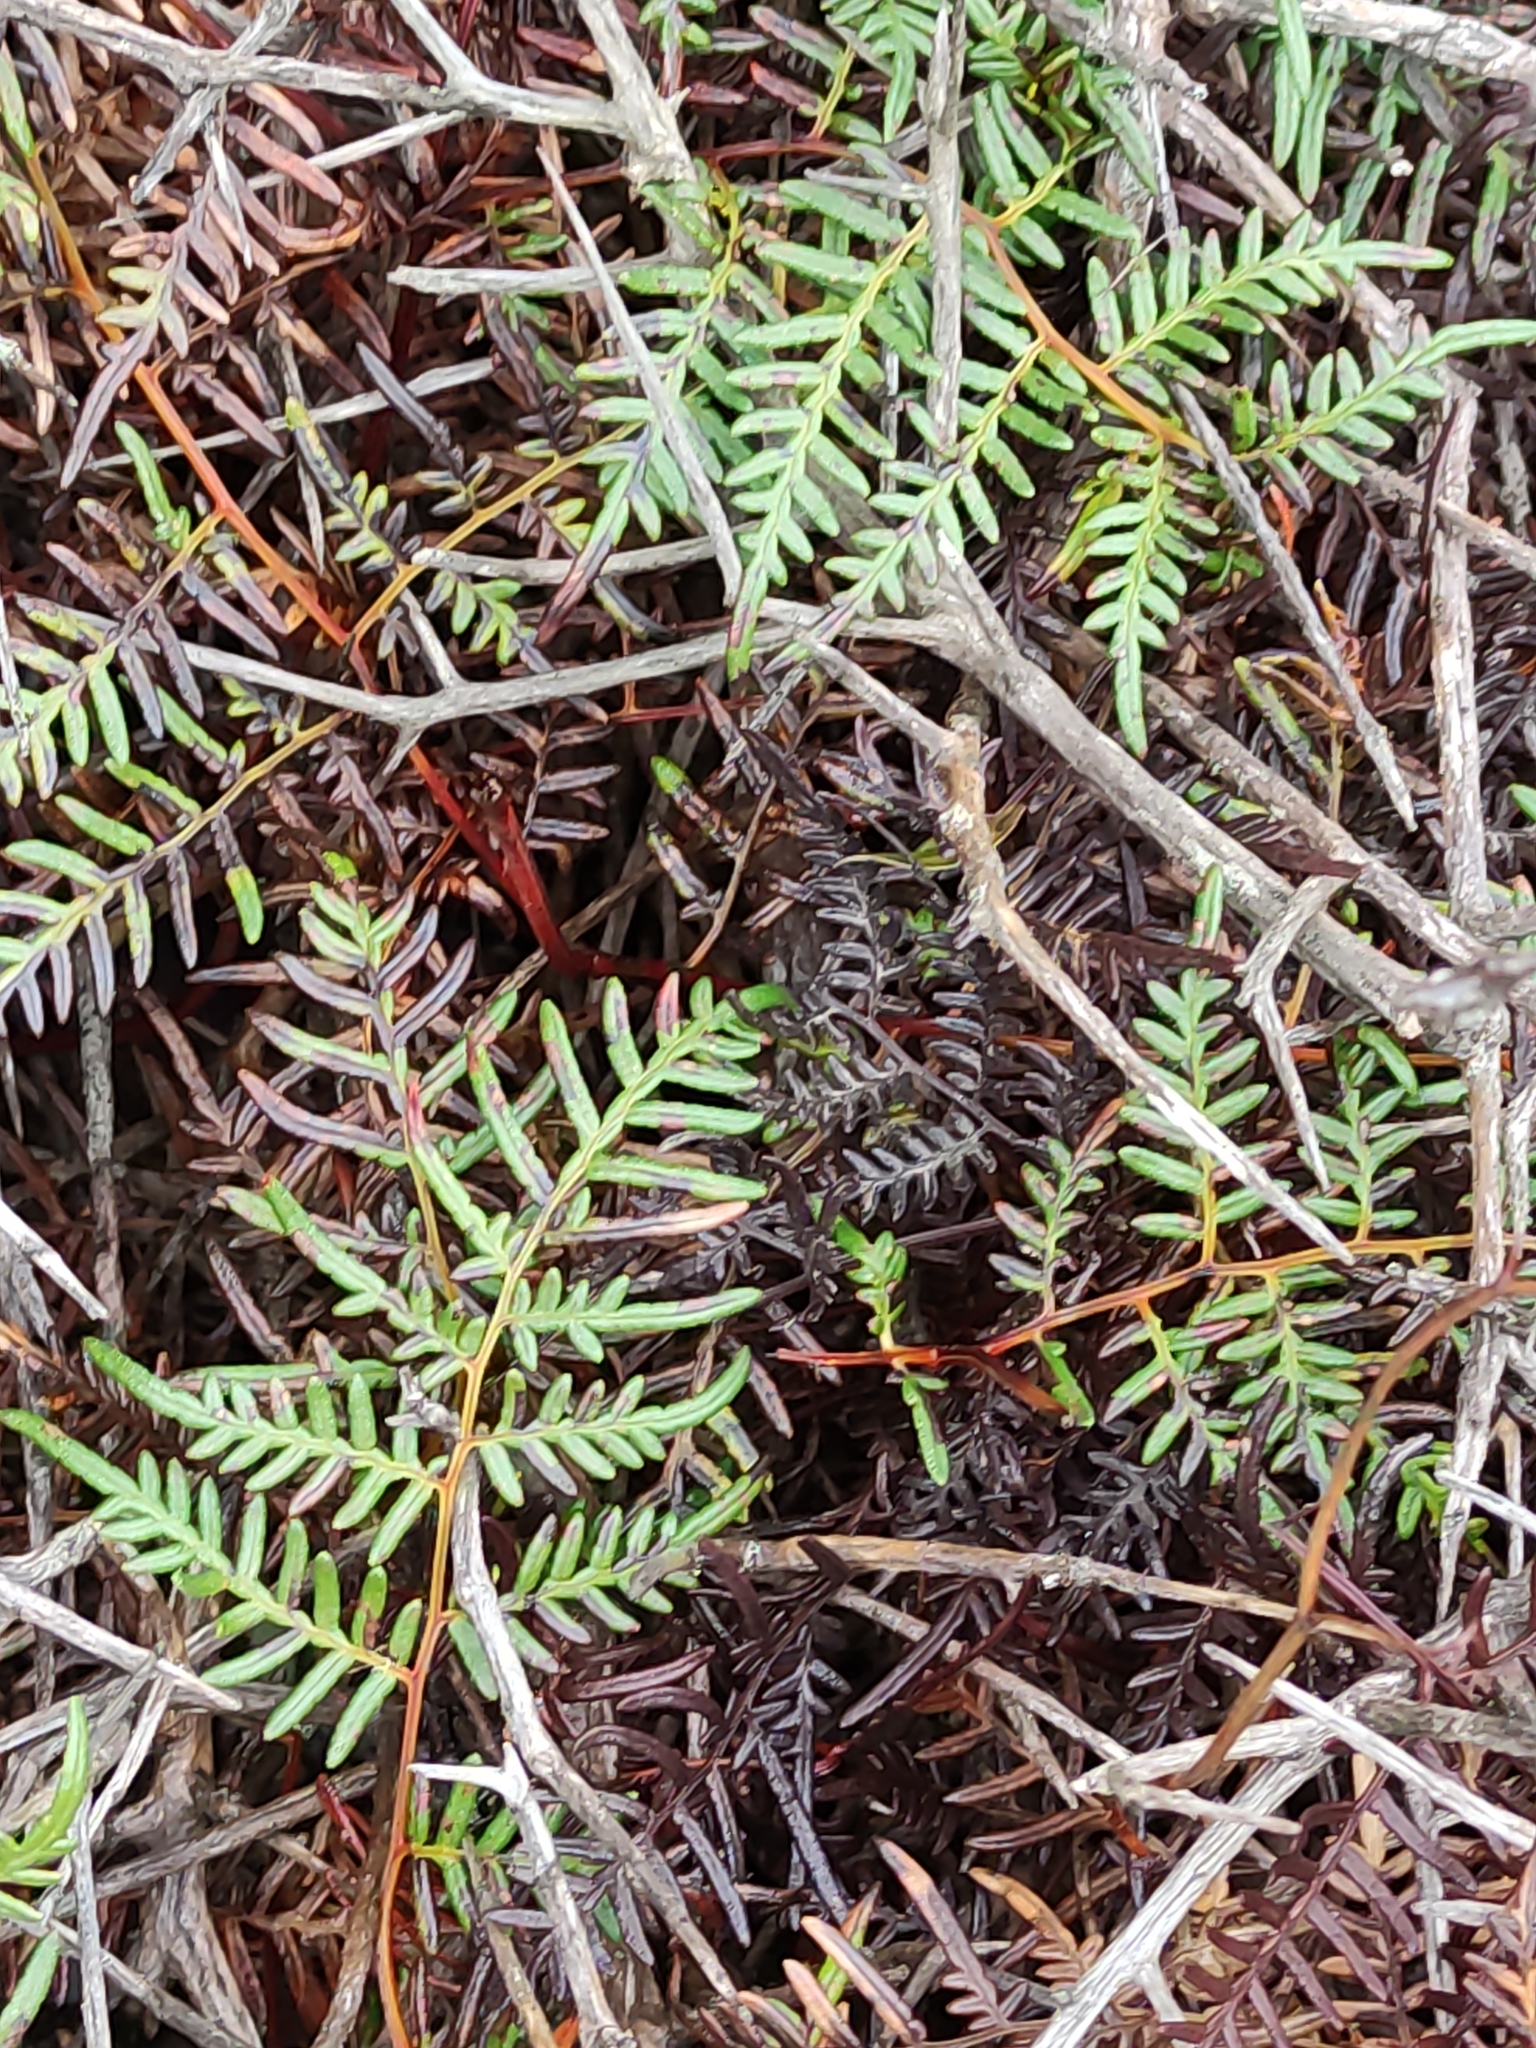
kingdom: Plantae
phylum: Tracheophyta
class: Polypodiopsida
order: Polypodiales
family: Dennstaedtiaceae
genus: Pteridium
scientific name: Pteridium esculentum
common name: Bracken fern
